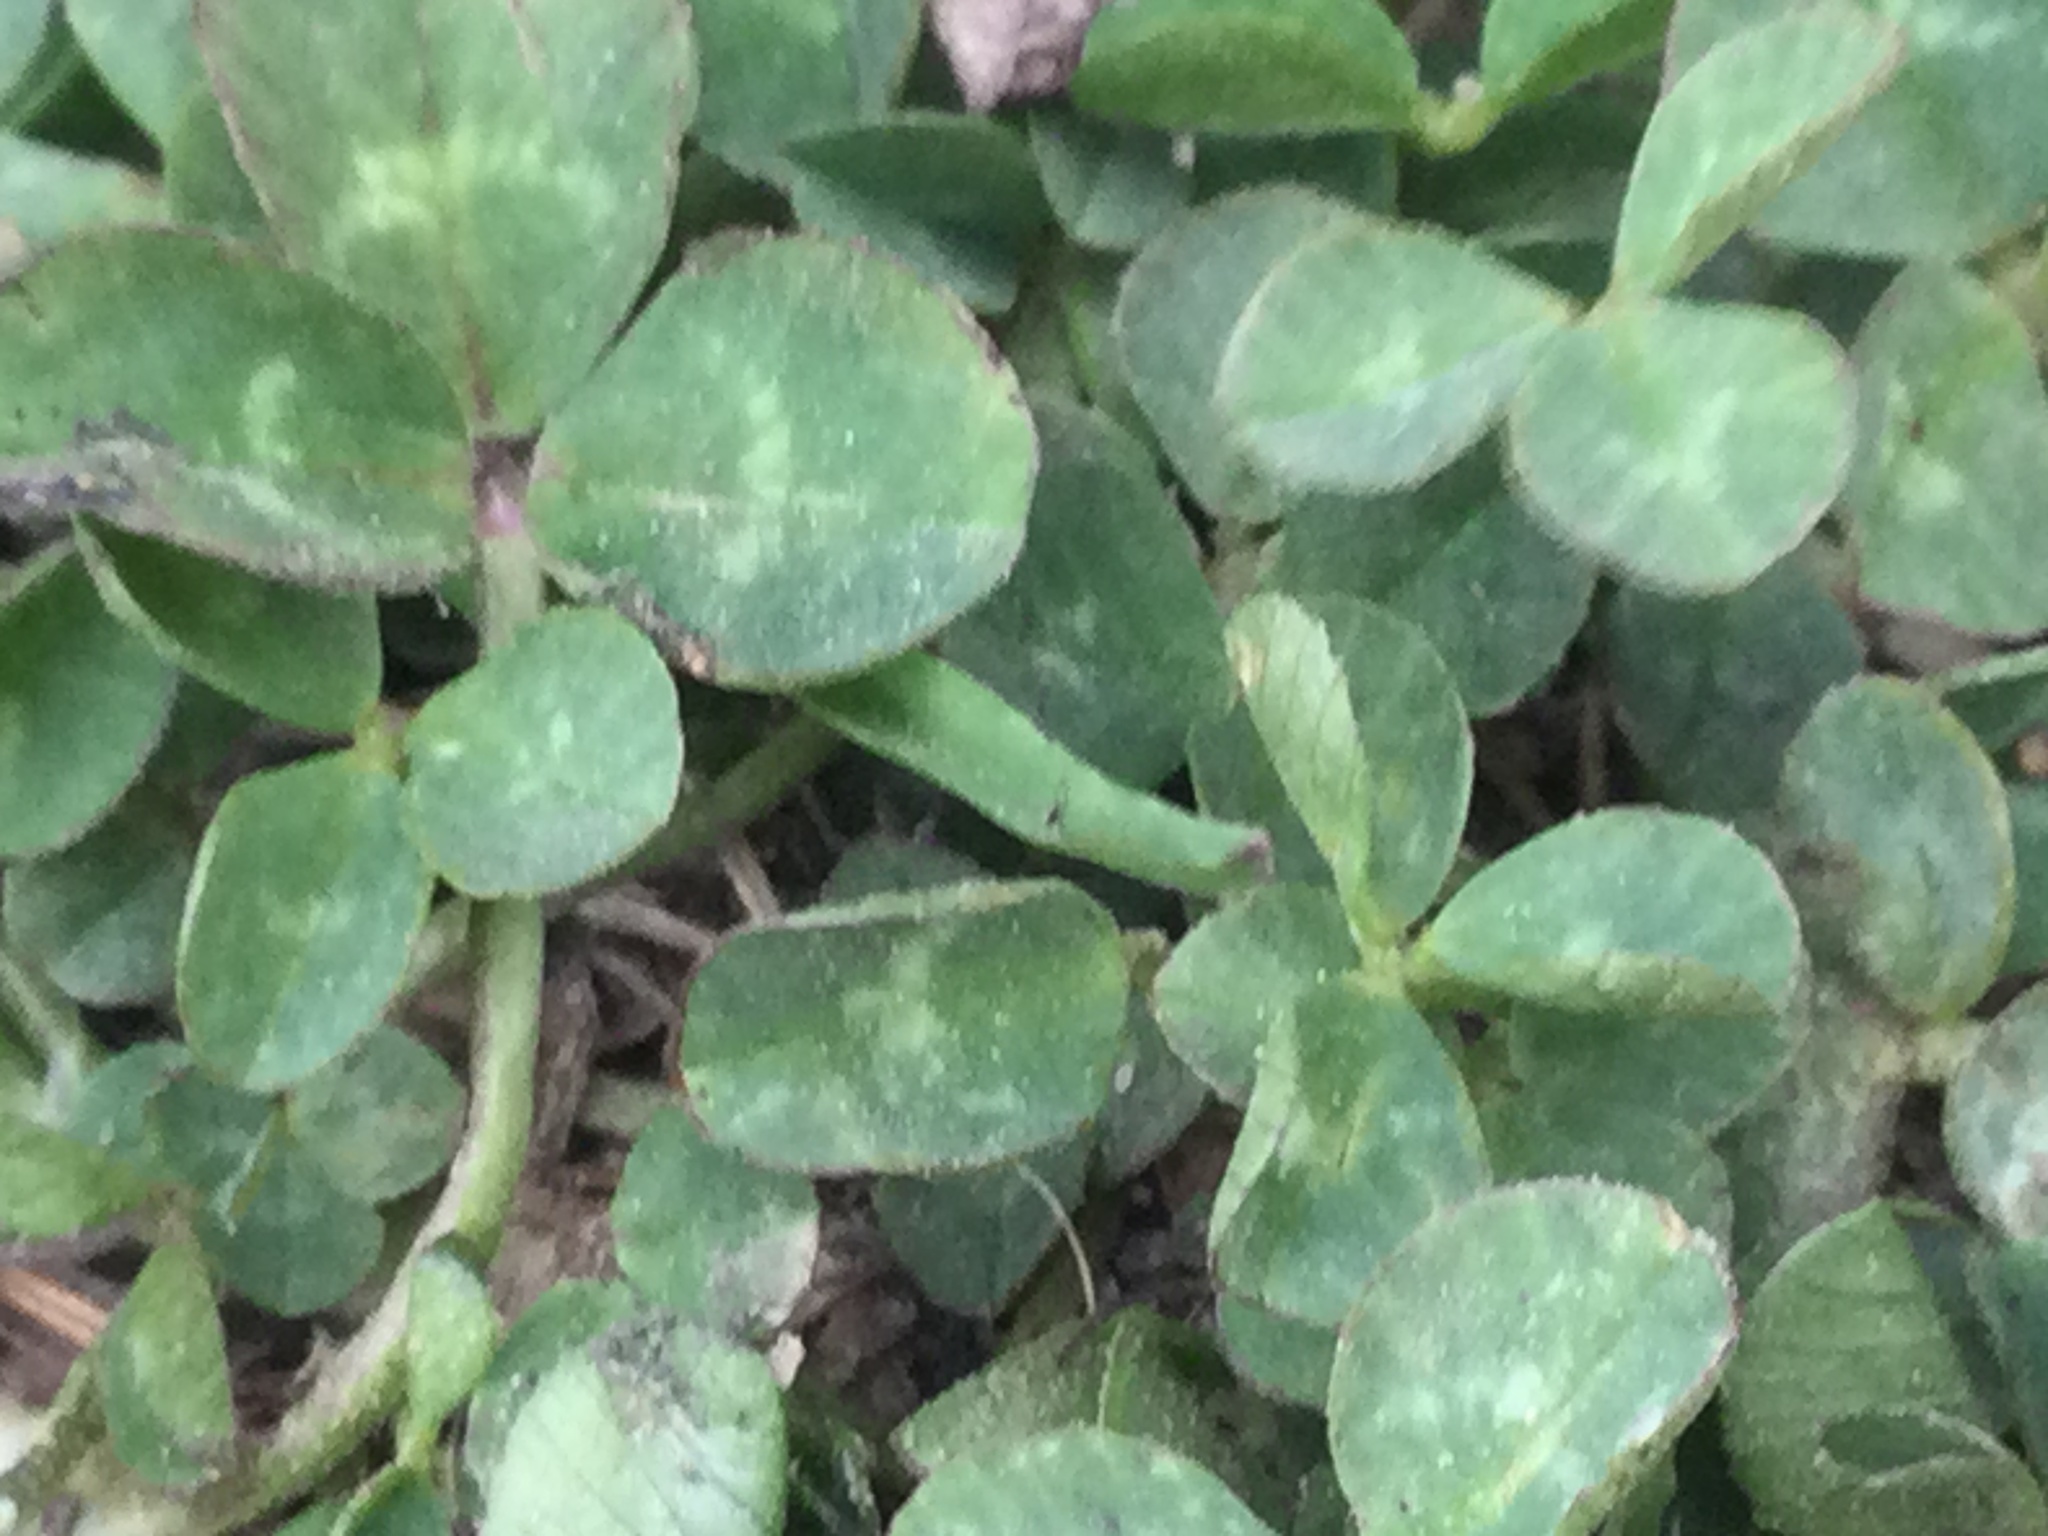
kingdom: Plantae
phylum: Tracheophyta
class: Magnoliopsida
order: Fabales
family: Fabaceae
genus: Trifolium
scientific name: Trifolium repens
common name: White clover
